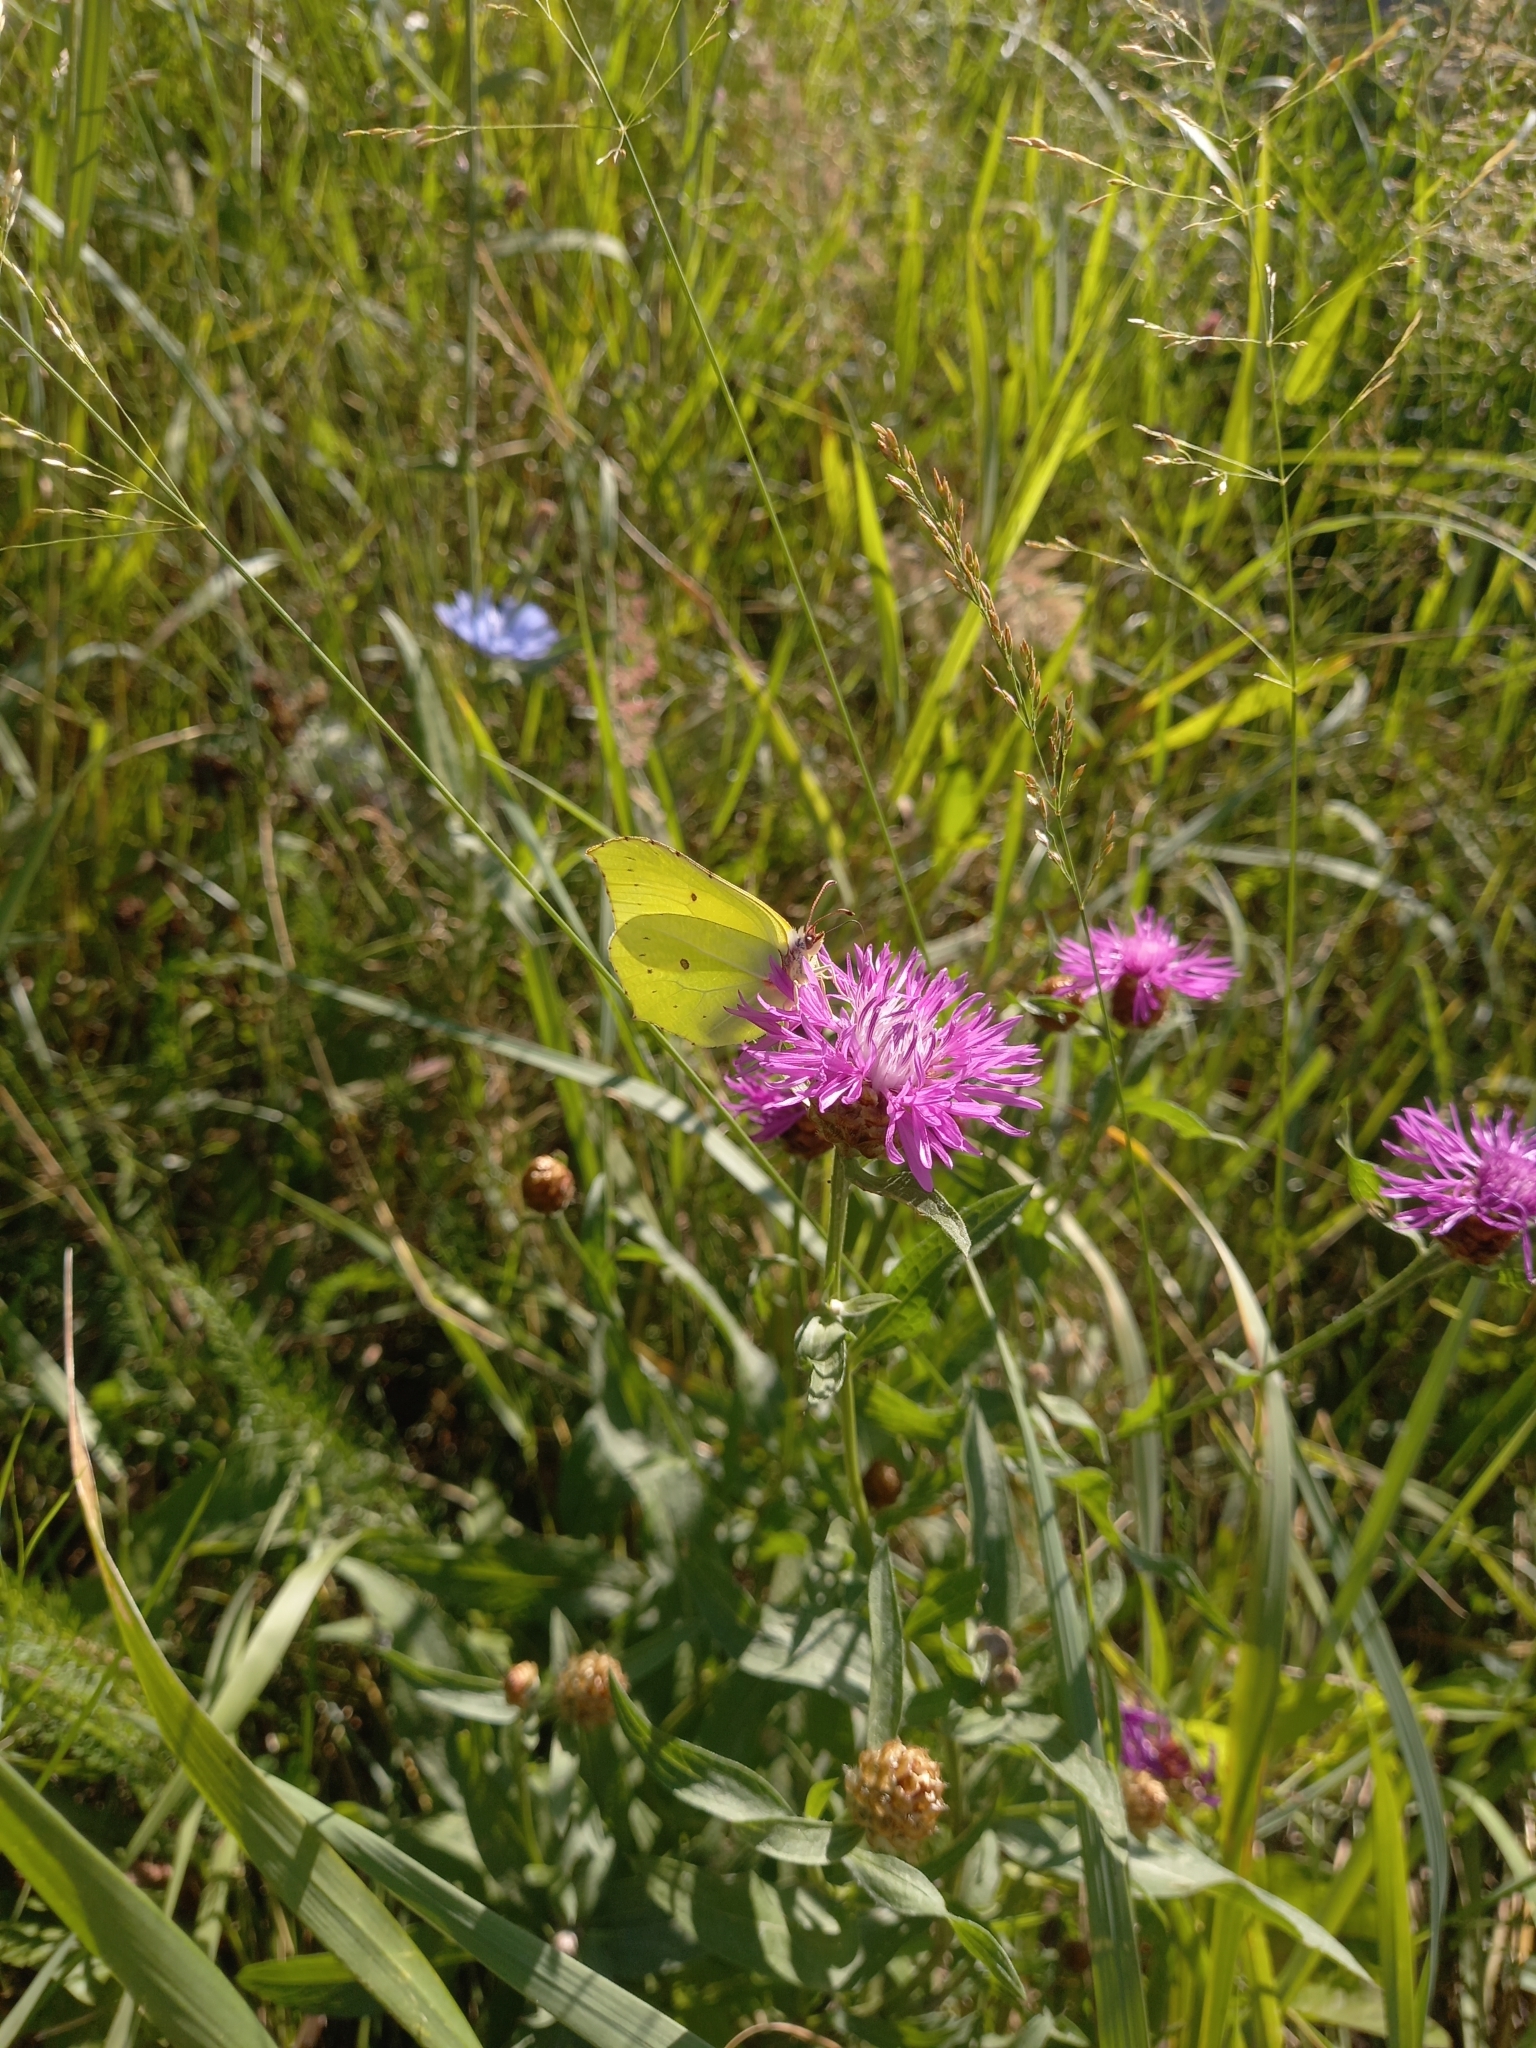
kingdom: Animalia
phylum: Arthropoda
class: Insecta
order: Lepidoptera
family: Pieridae
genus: Gonepteryx
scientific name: Gonepteryx rhamni
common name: Brimstone
